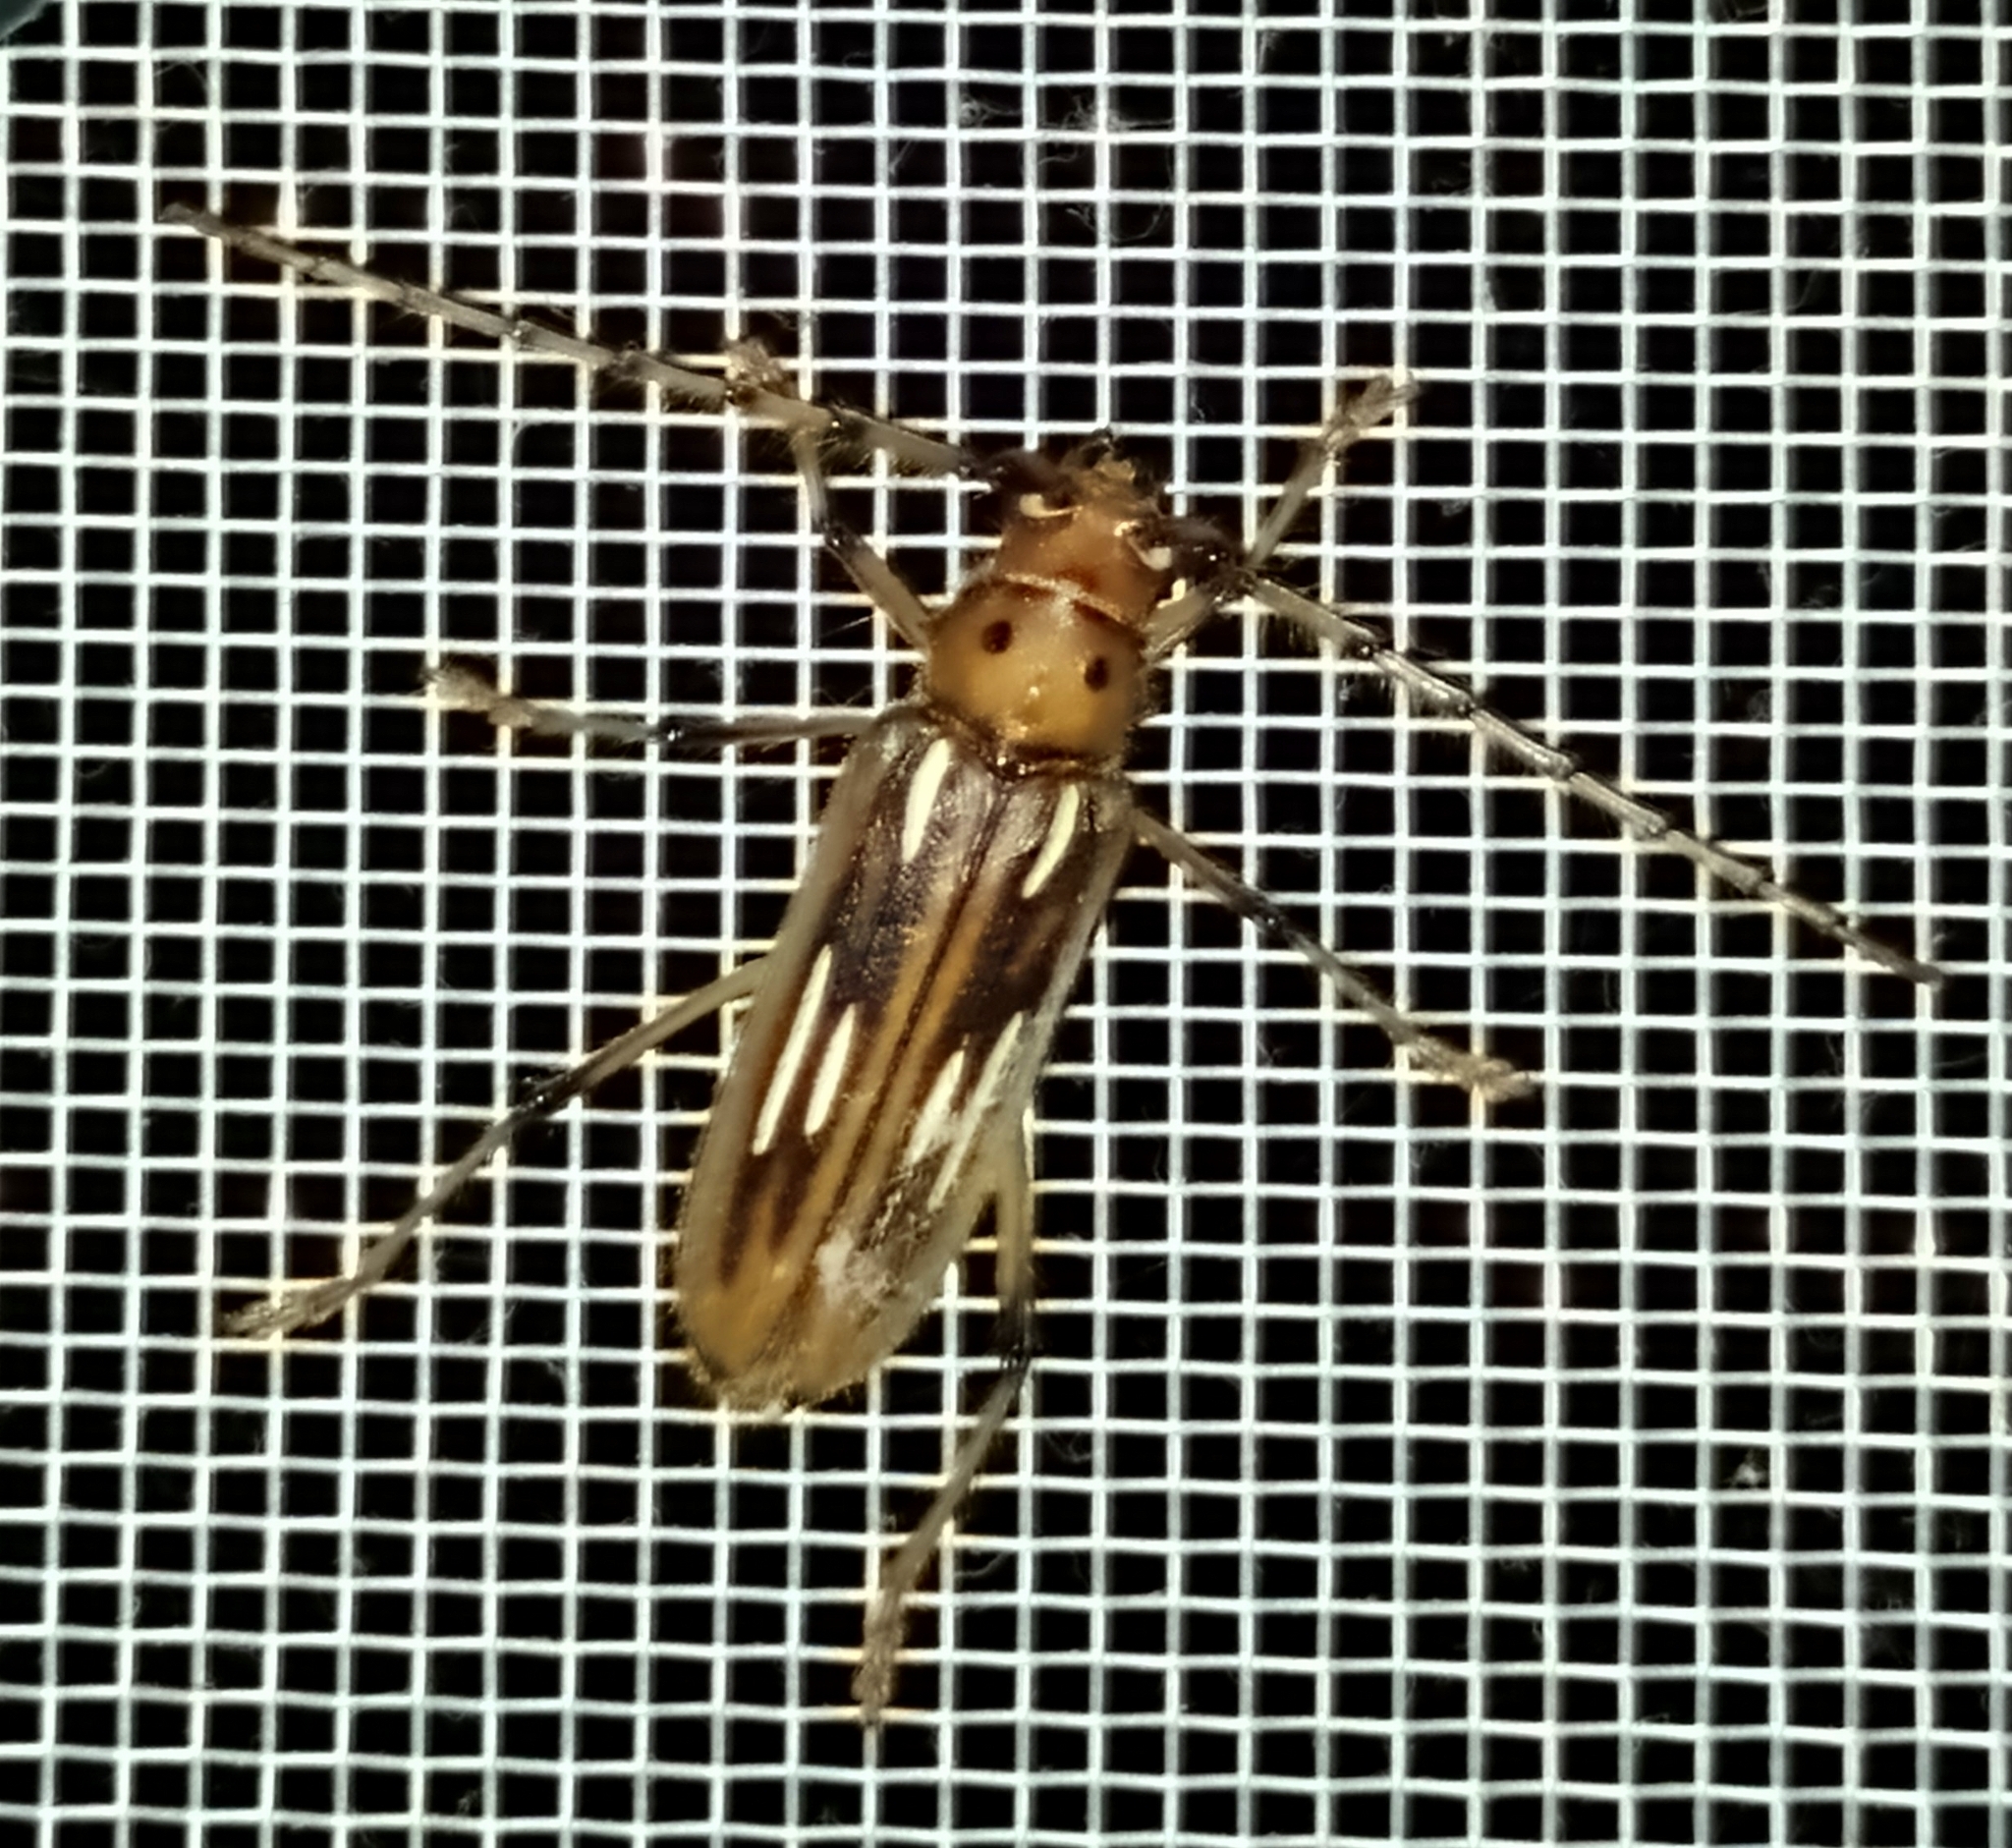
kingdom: Animalia
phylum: Arthropoda
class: Insecta
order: Coleoptera
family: Cerambycidae
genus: Uncieburia
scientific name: Uncieburia quadrilineata
